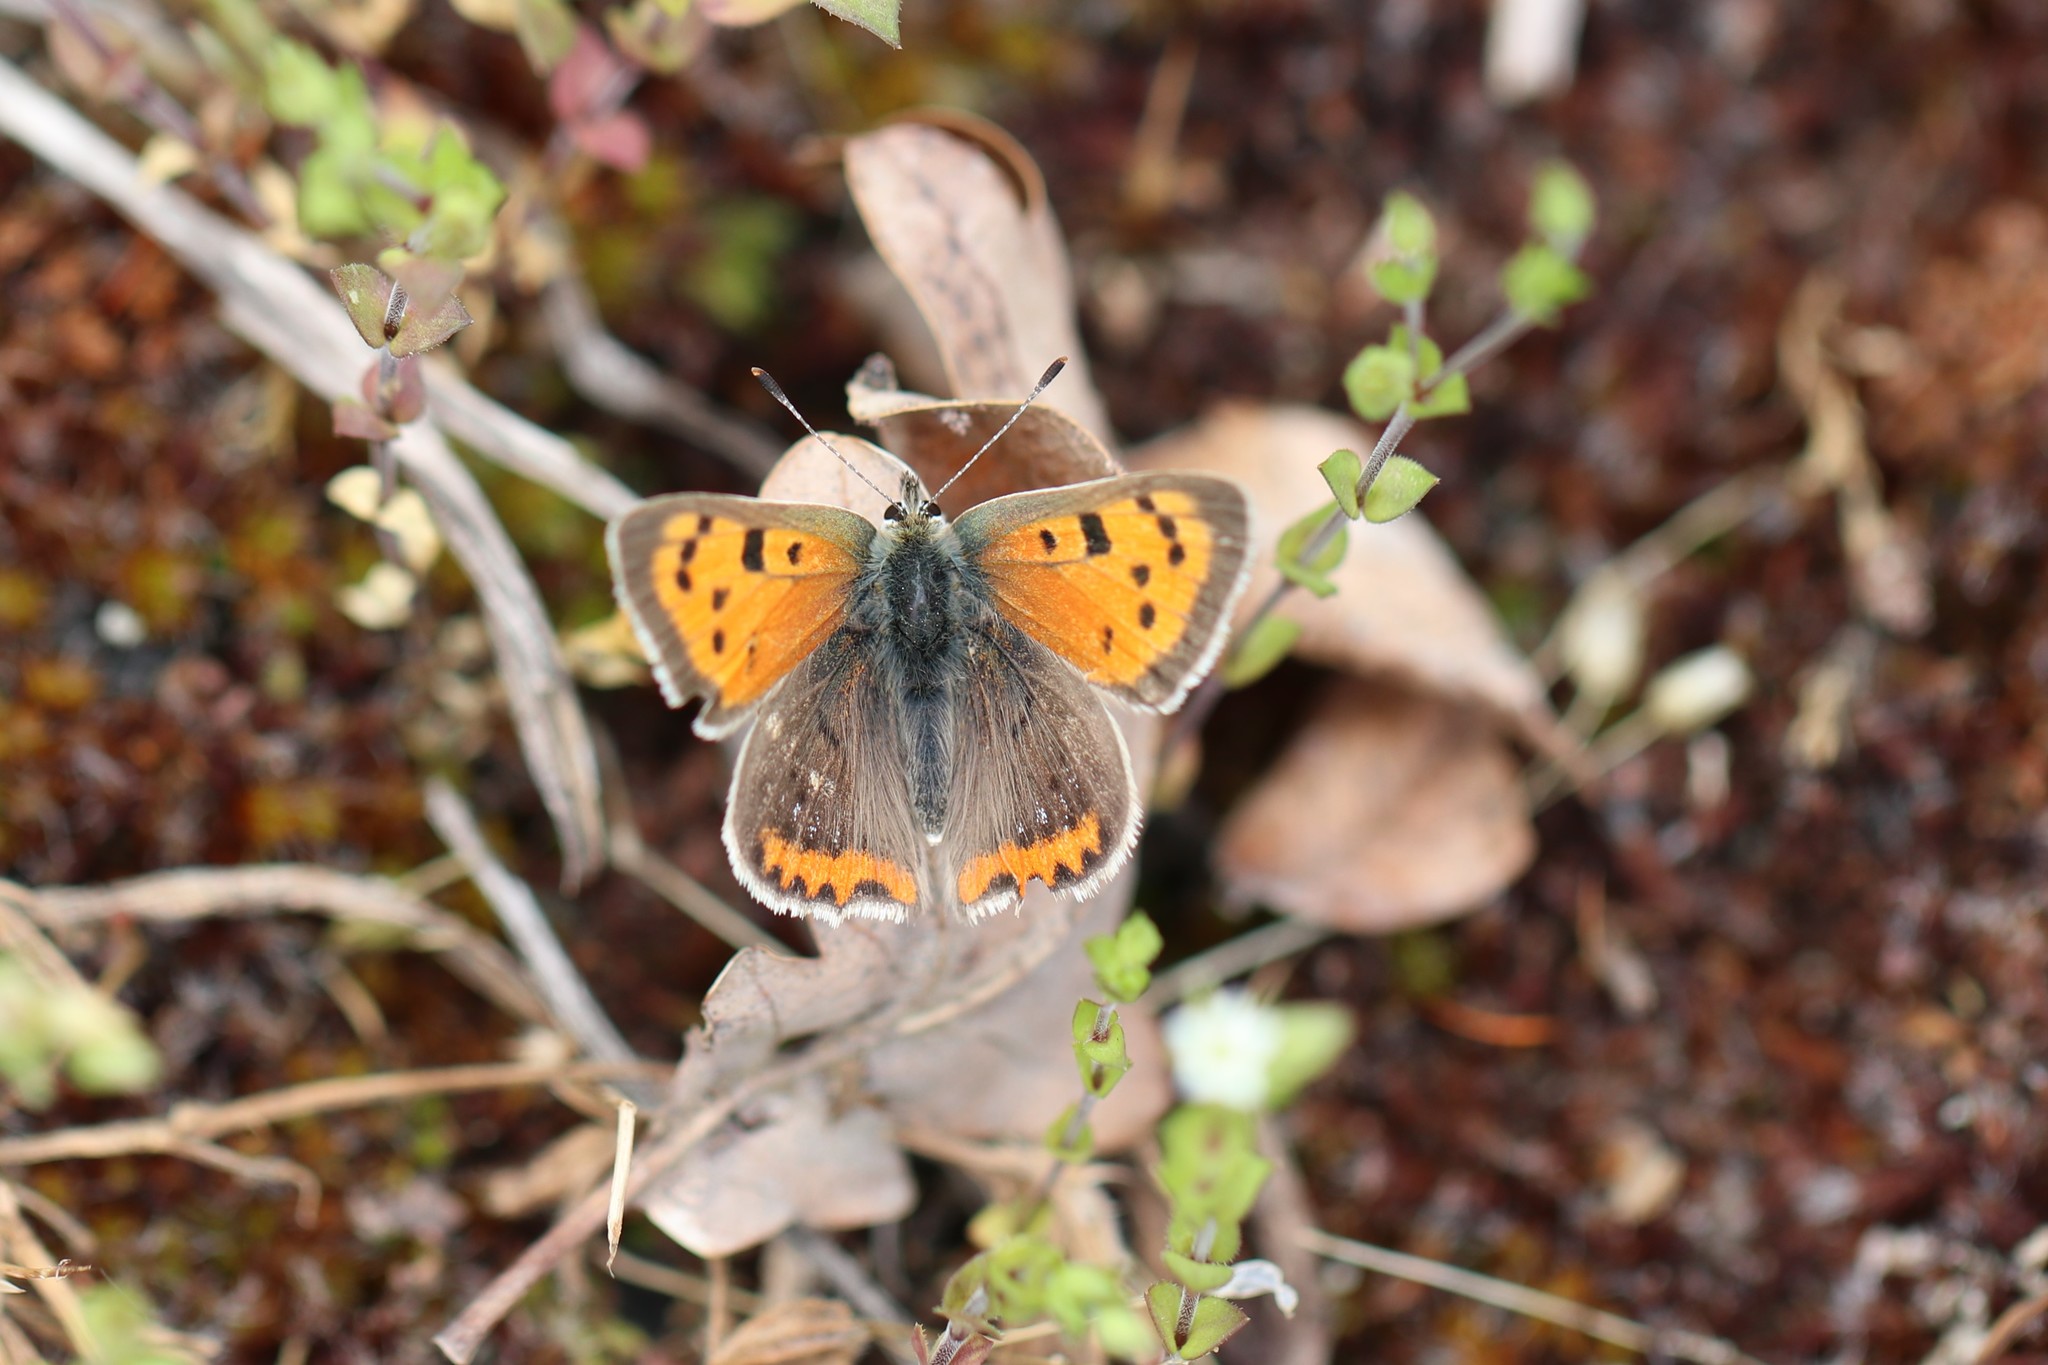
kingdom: Animalia
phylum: Arthropoda
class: Insecta
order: Lepidoptera
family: Lycaenidae
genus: Lycaena
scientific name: Lycaena phlaeas
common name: Small copper
